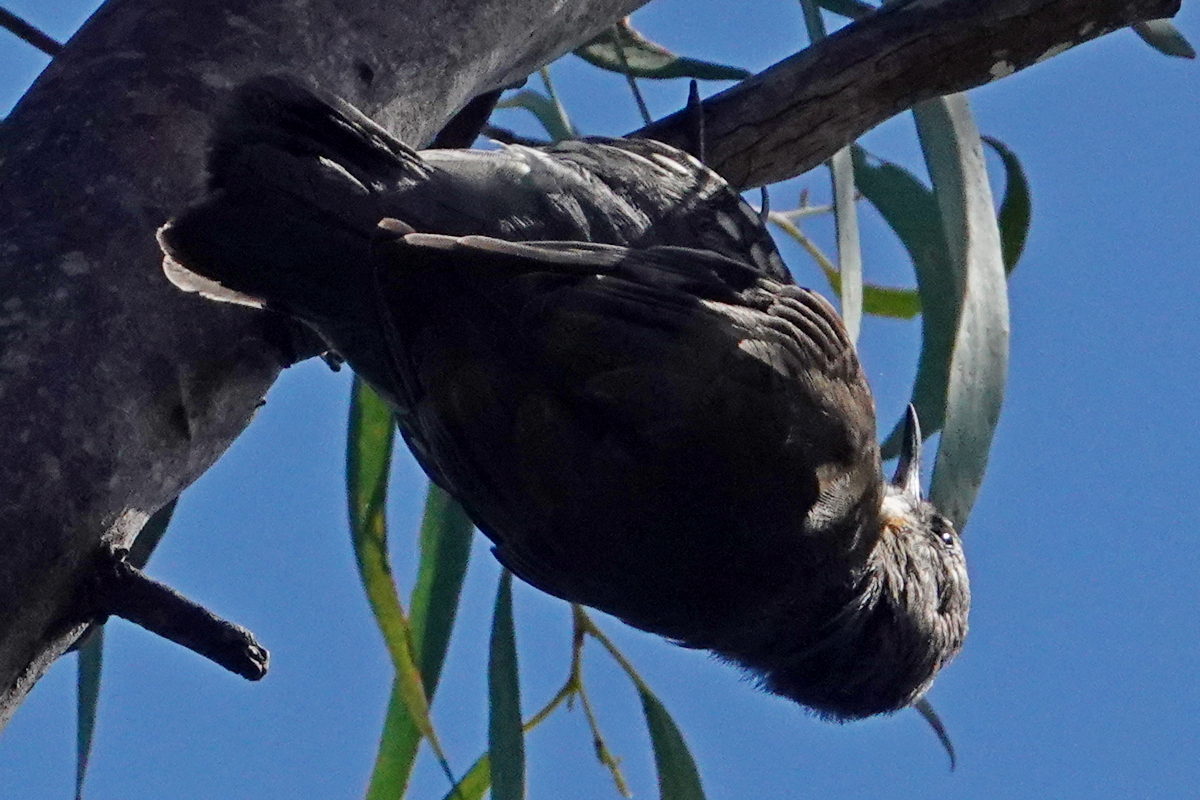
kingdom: Animalia
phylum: Chordata
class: Aves
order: Passeriformes
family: Climacteridae
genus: Cormobates
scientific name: Cormobates leucophaea
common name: White-throated treecreeper
